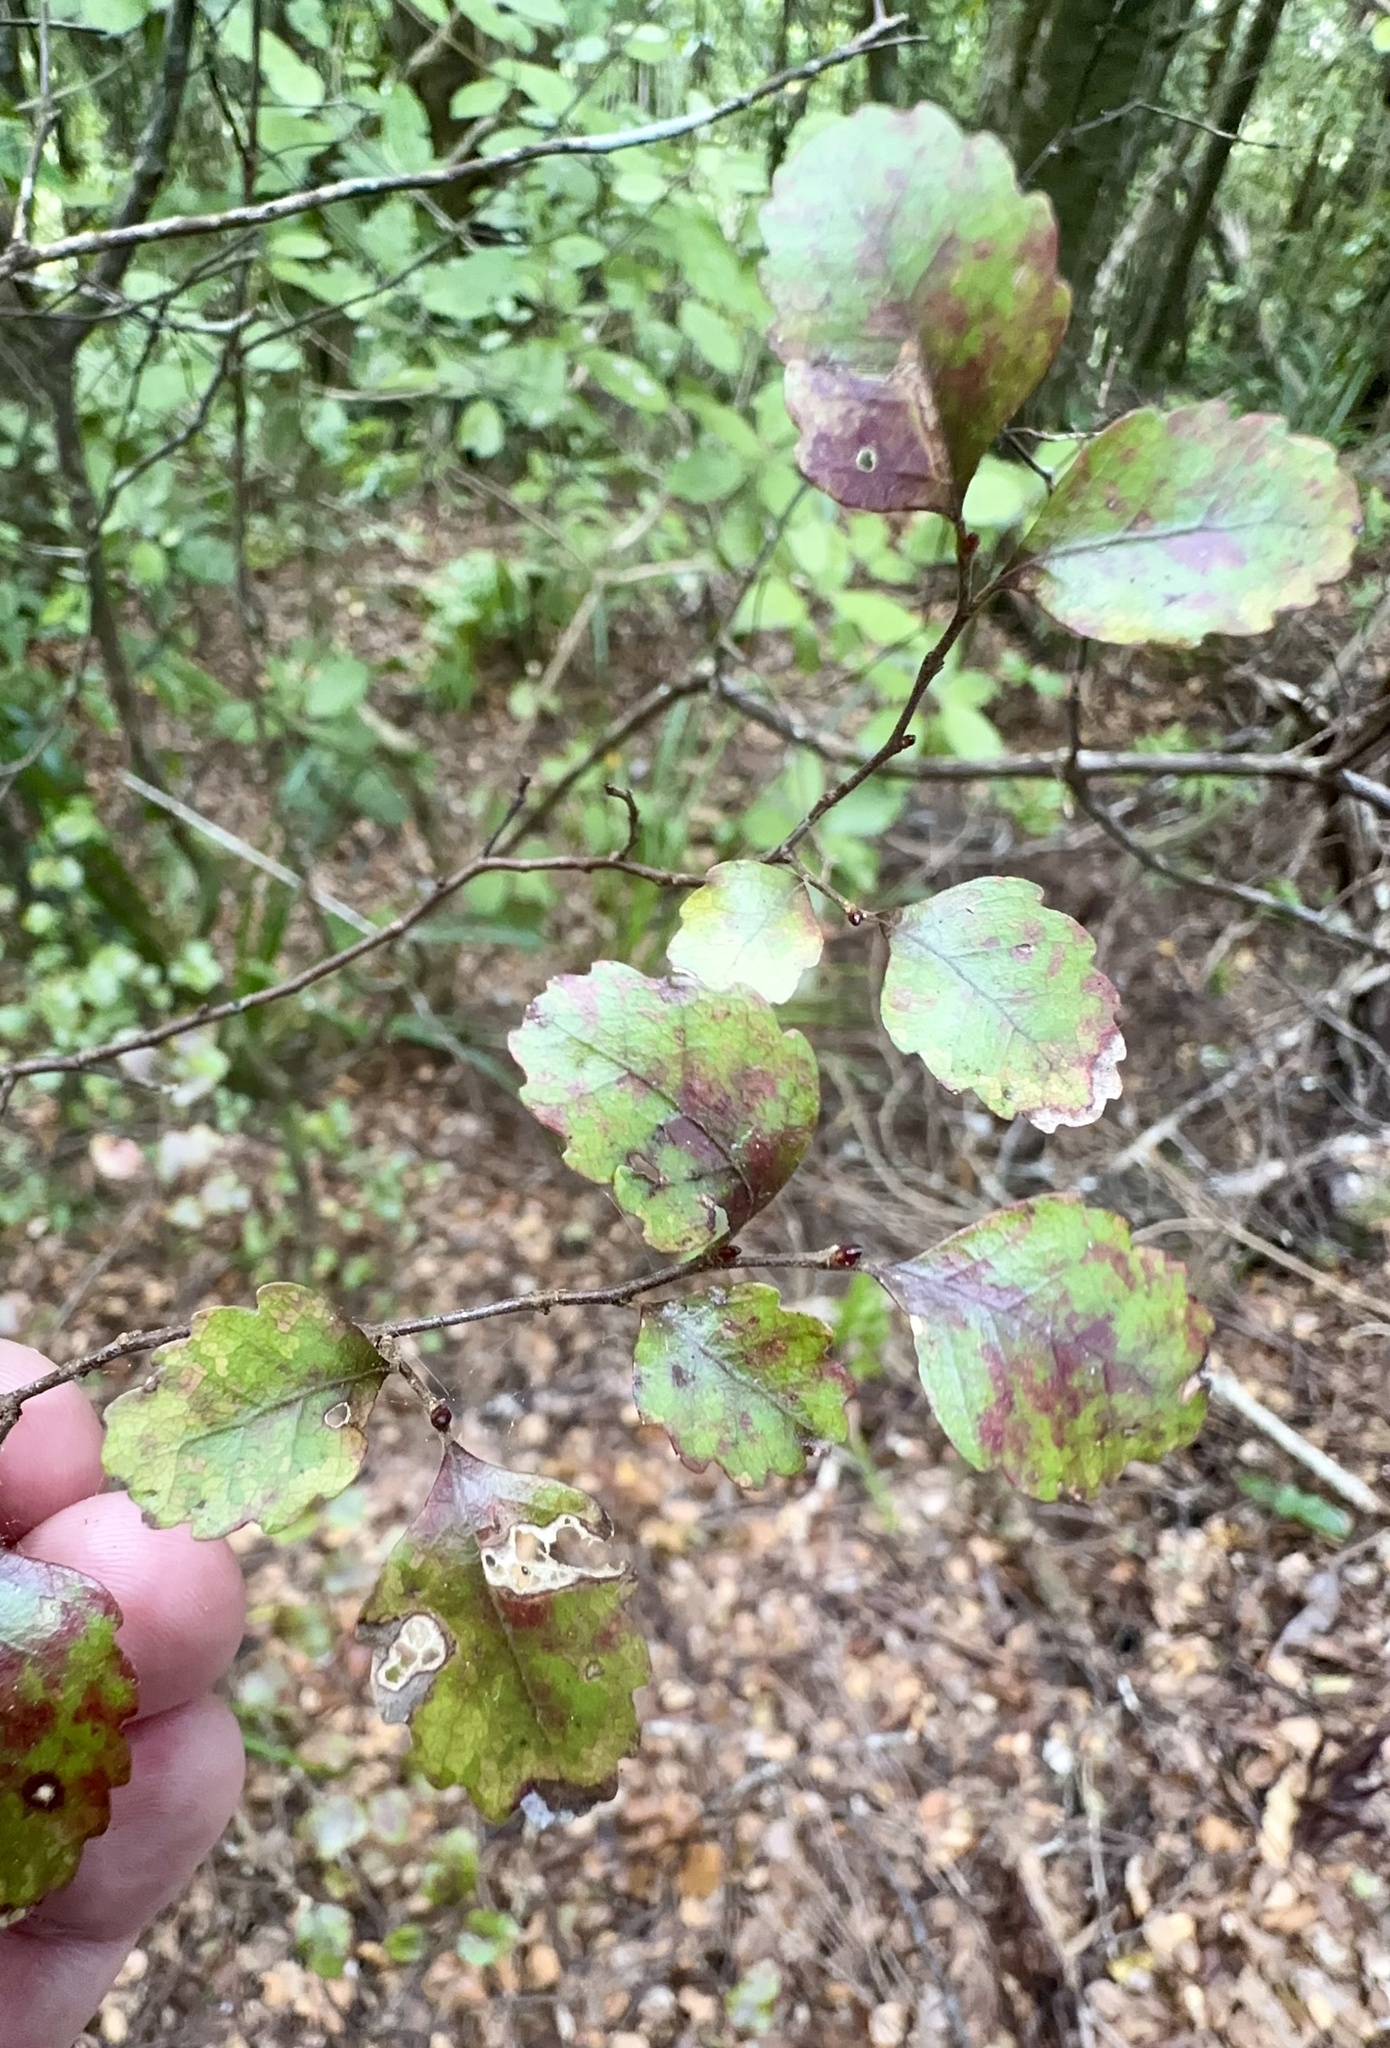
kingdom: Plantae
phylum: Tracheophyta
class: Magnoliopsida
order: Fagales
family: Nothofagaceae
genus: Nothofagus
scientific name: Nothofagus truncata
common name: Hard beech
